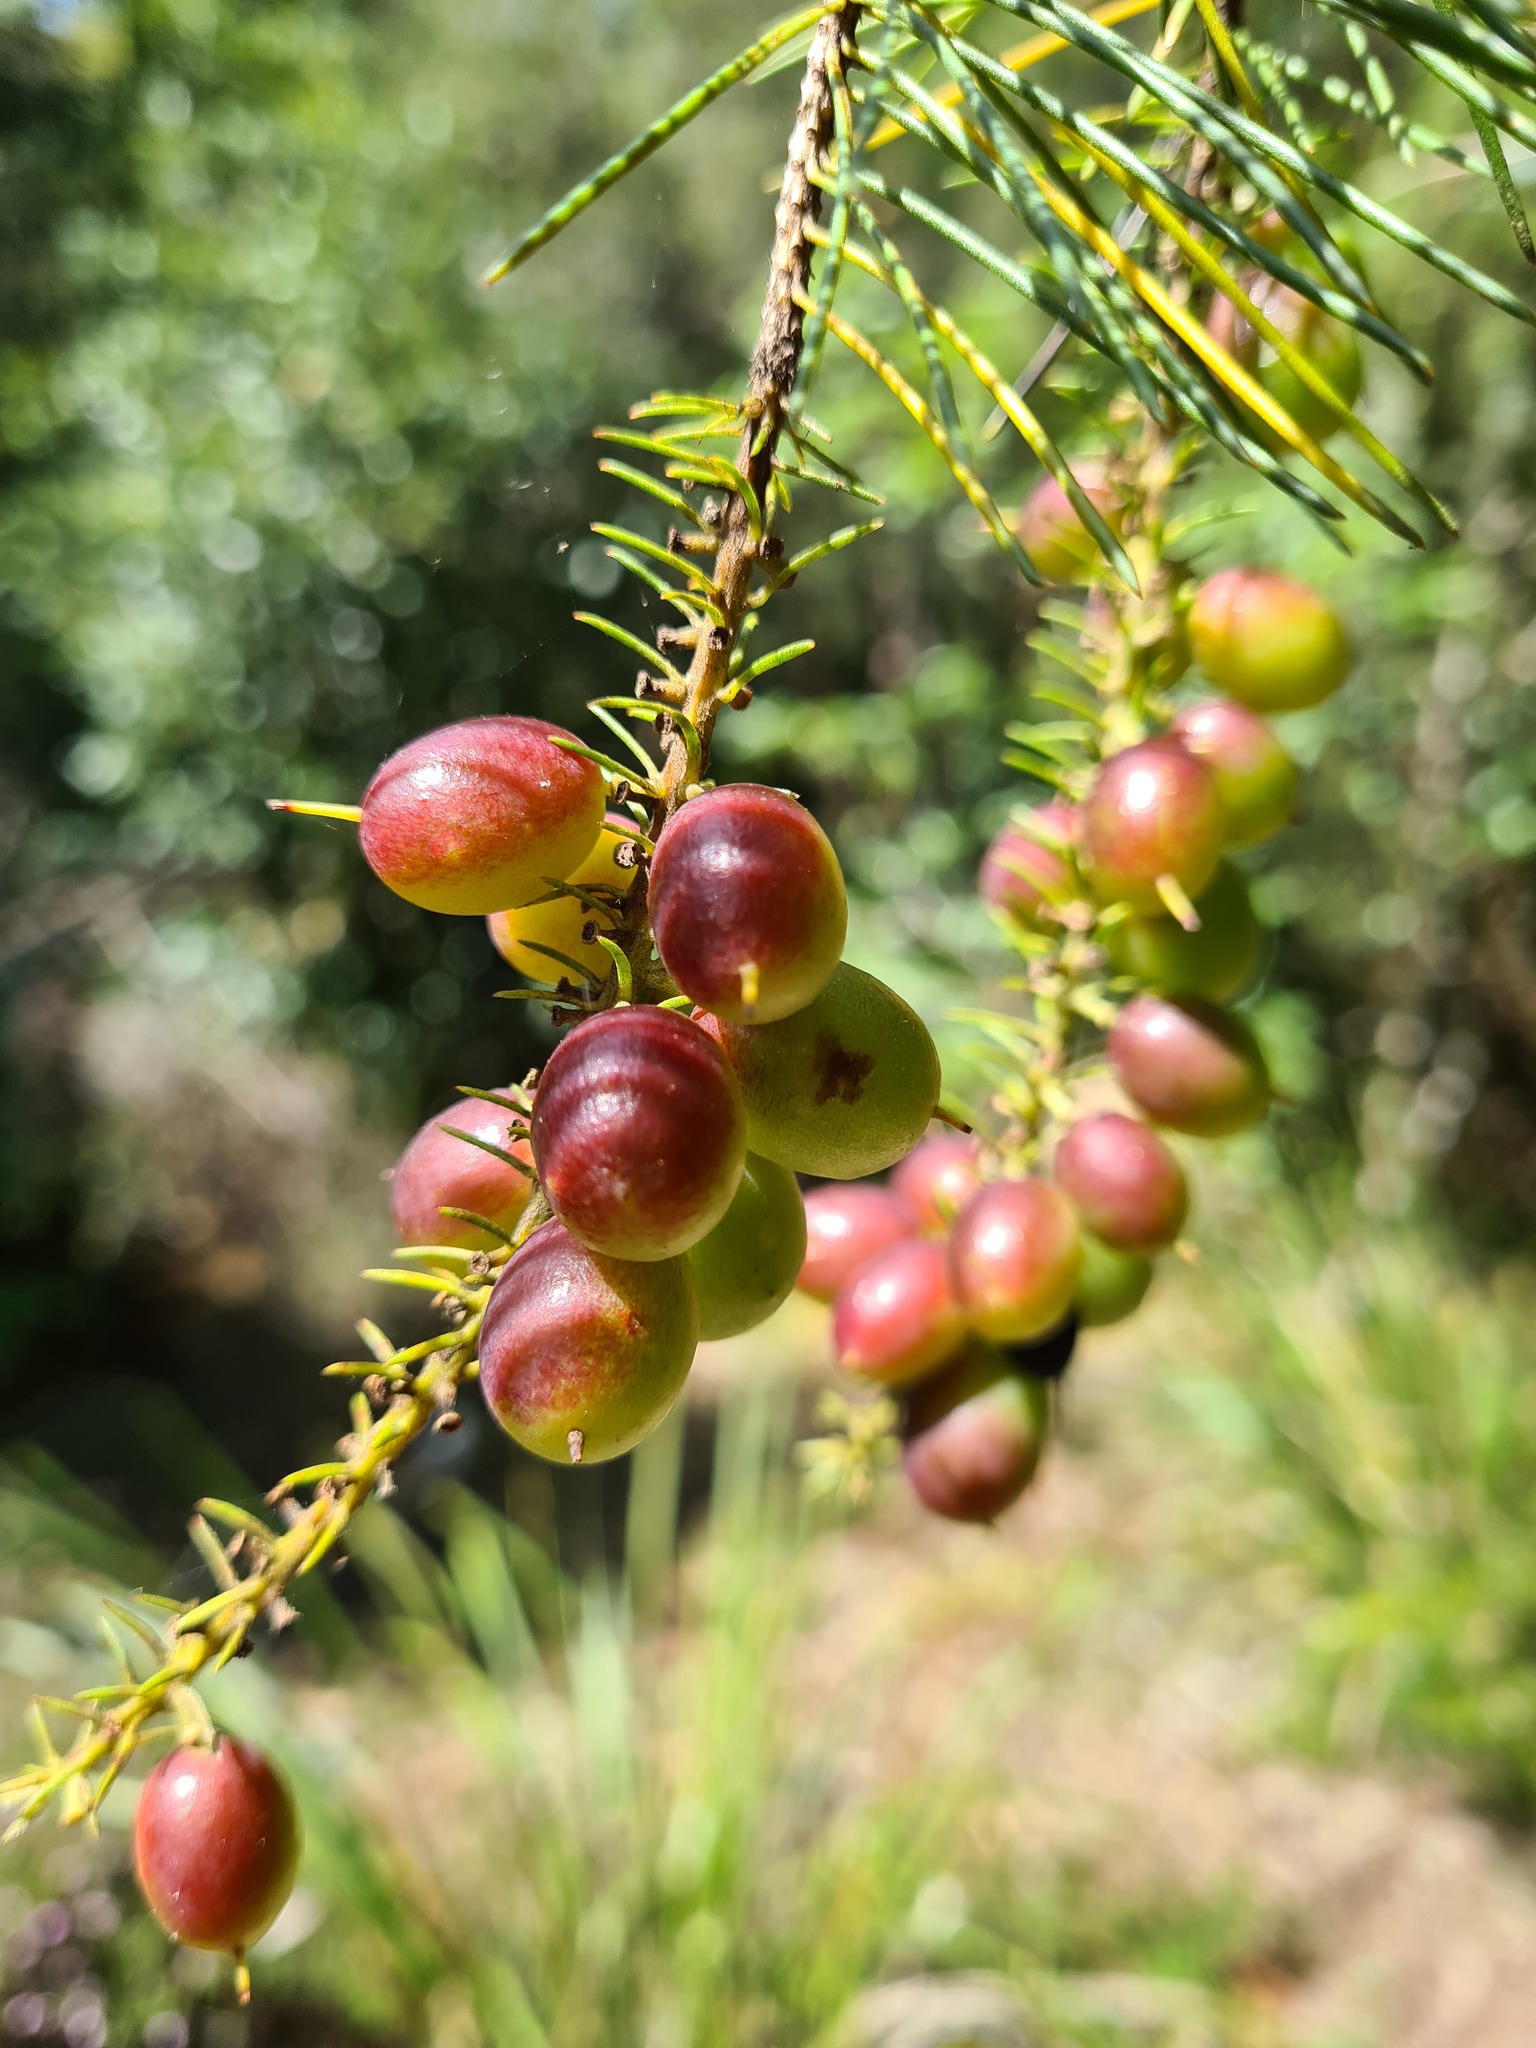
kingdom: Plantae
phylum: Tracheophyta
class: Magnoliopsida
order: Proteales
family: Proteaceae
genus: Persoonia
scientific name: Persoonia pinifolia
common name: Pine-leaf geebung
